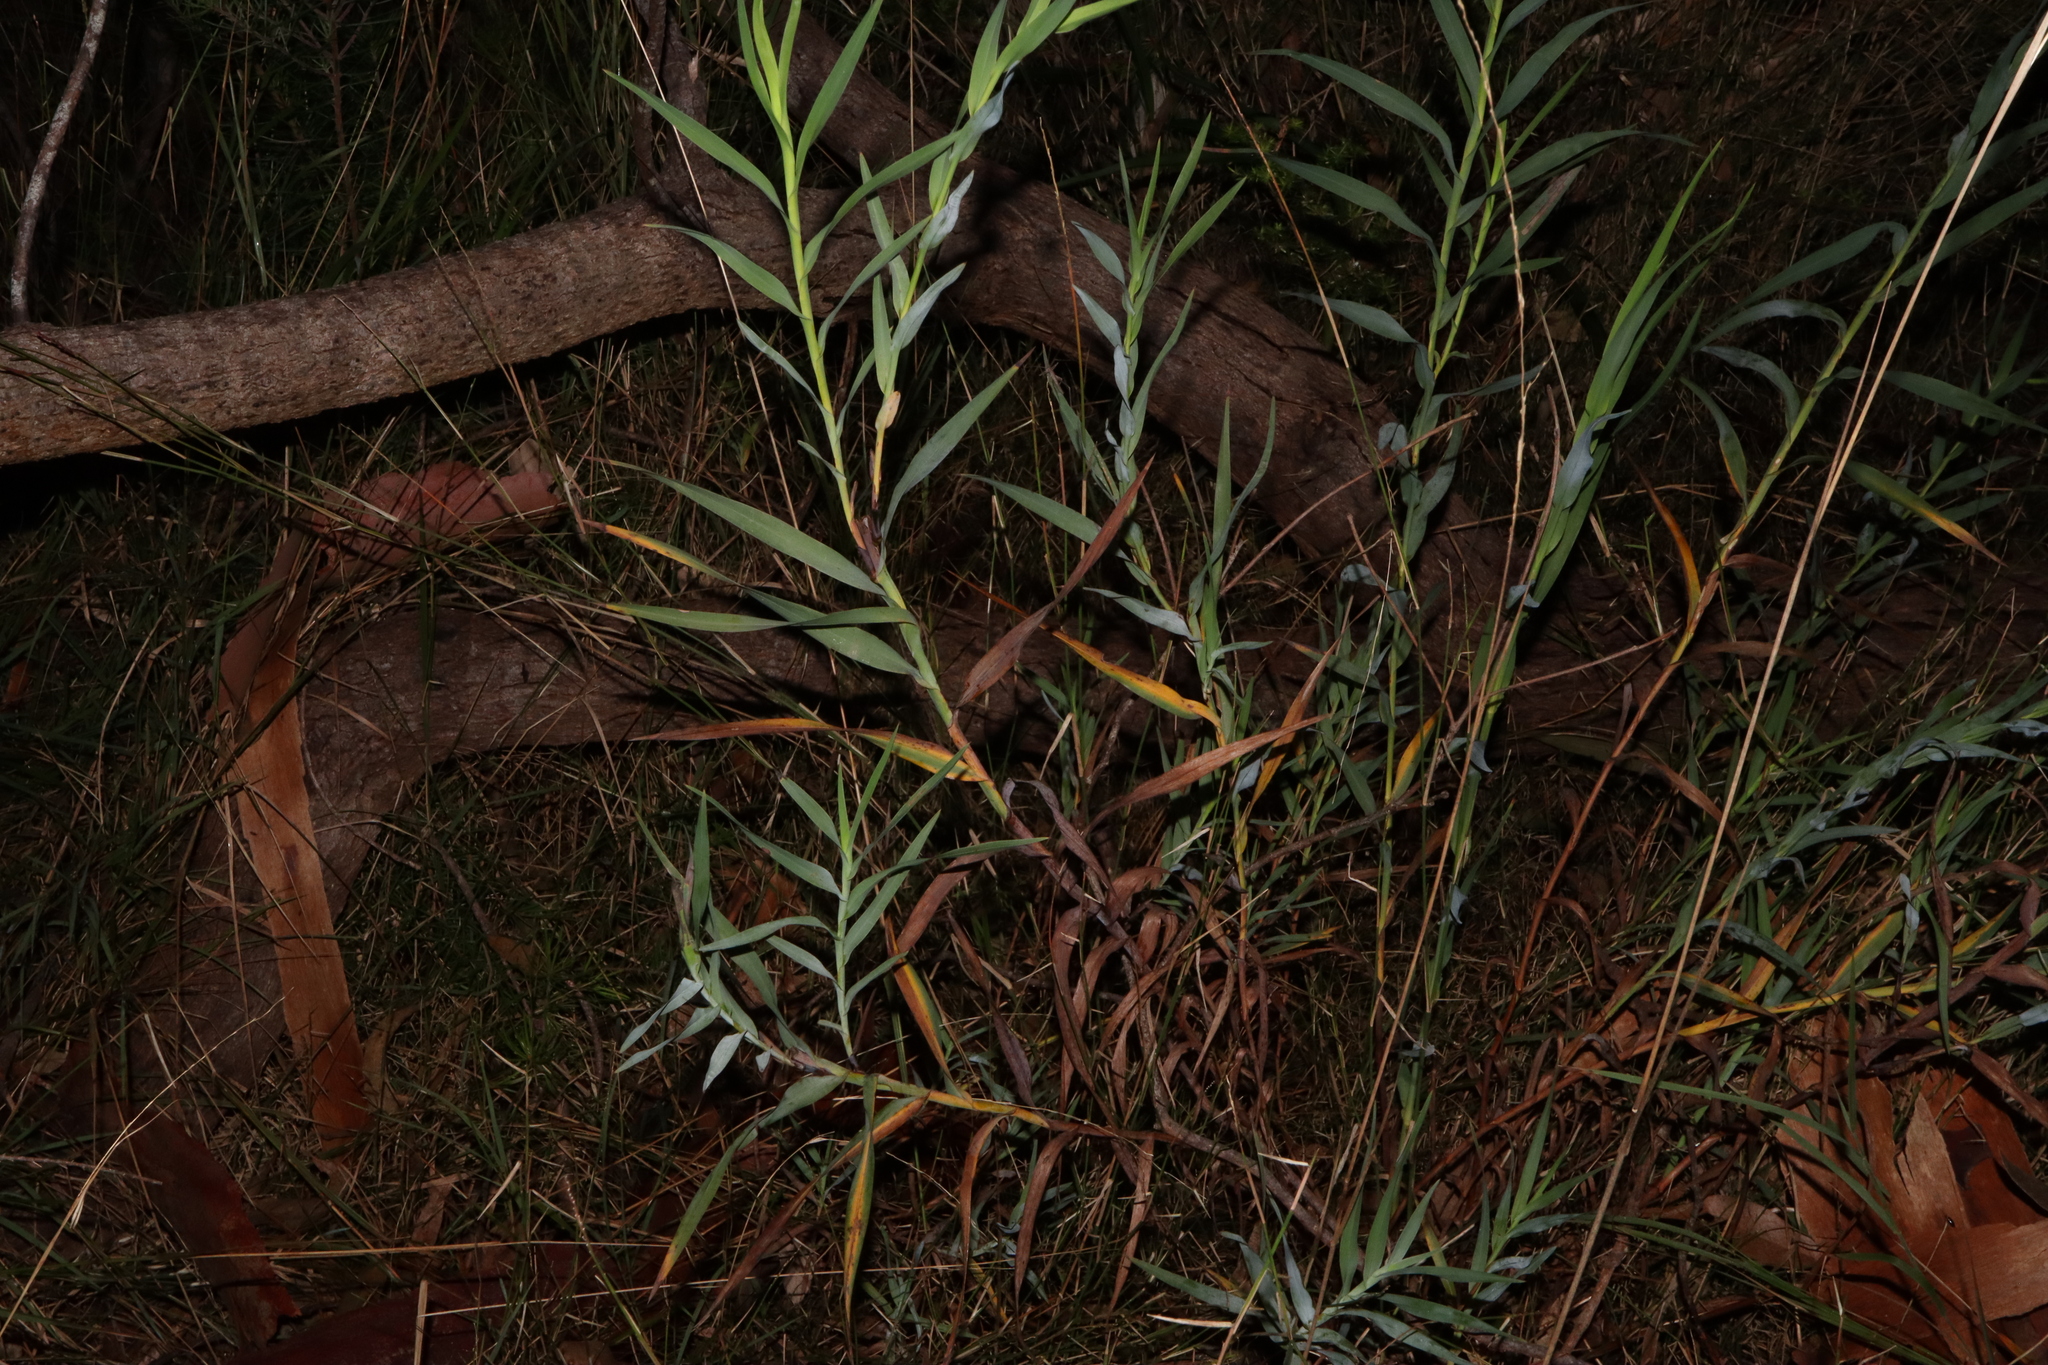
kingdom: Plantae
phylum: Tracheophyta
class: Liliopsida
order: Asparagales
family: Asphodelaceae
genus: Stypandra
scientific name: Stypandra glauca
